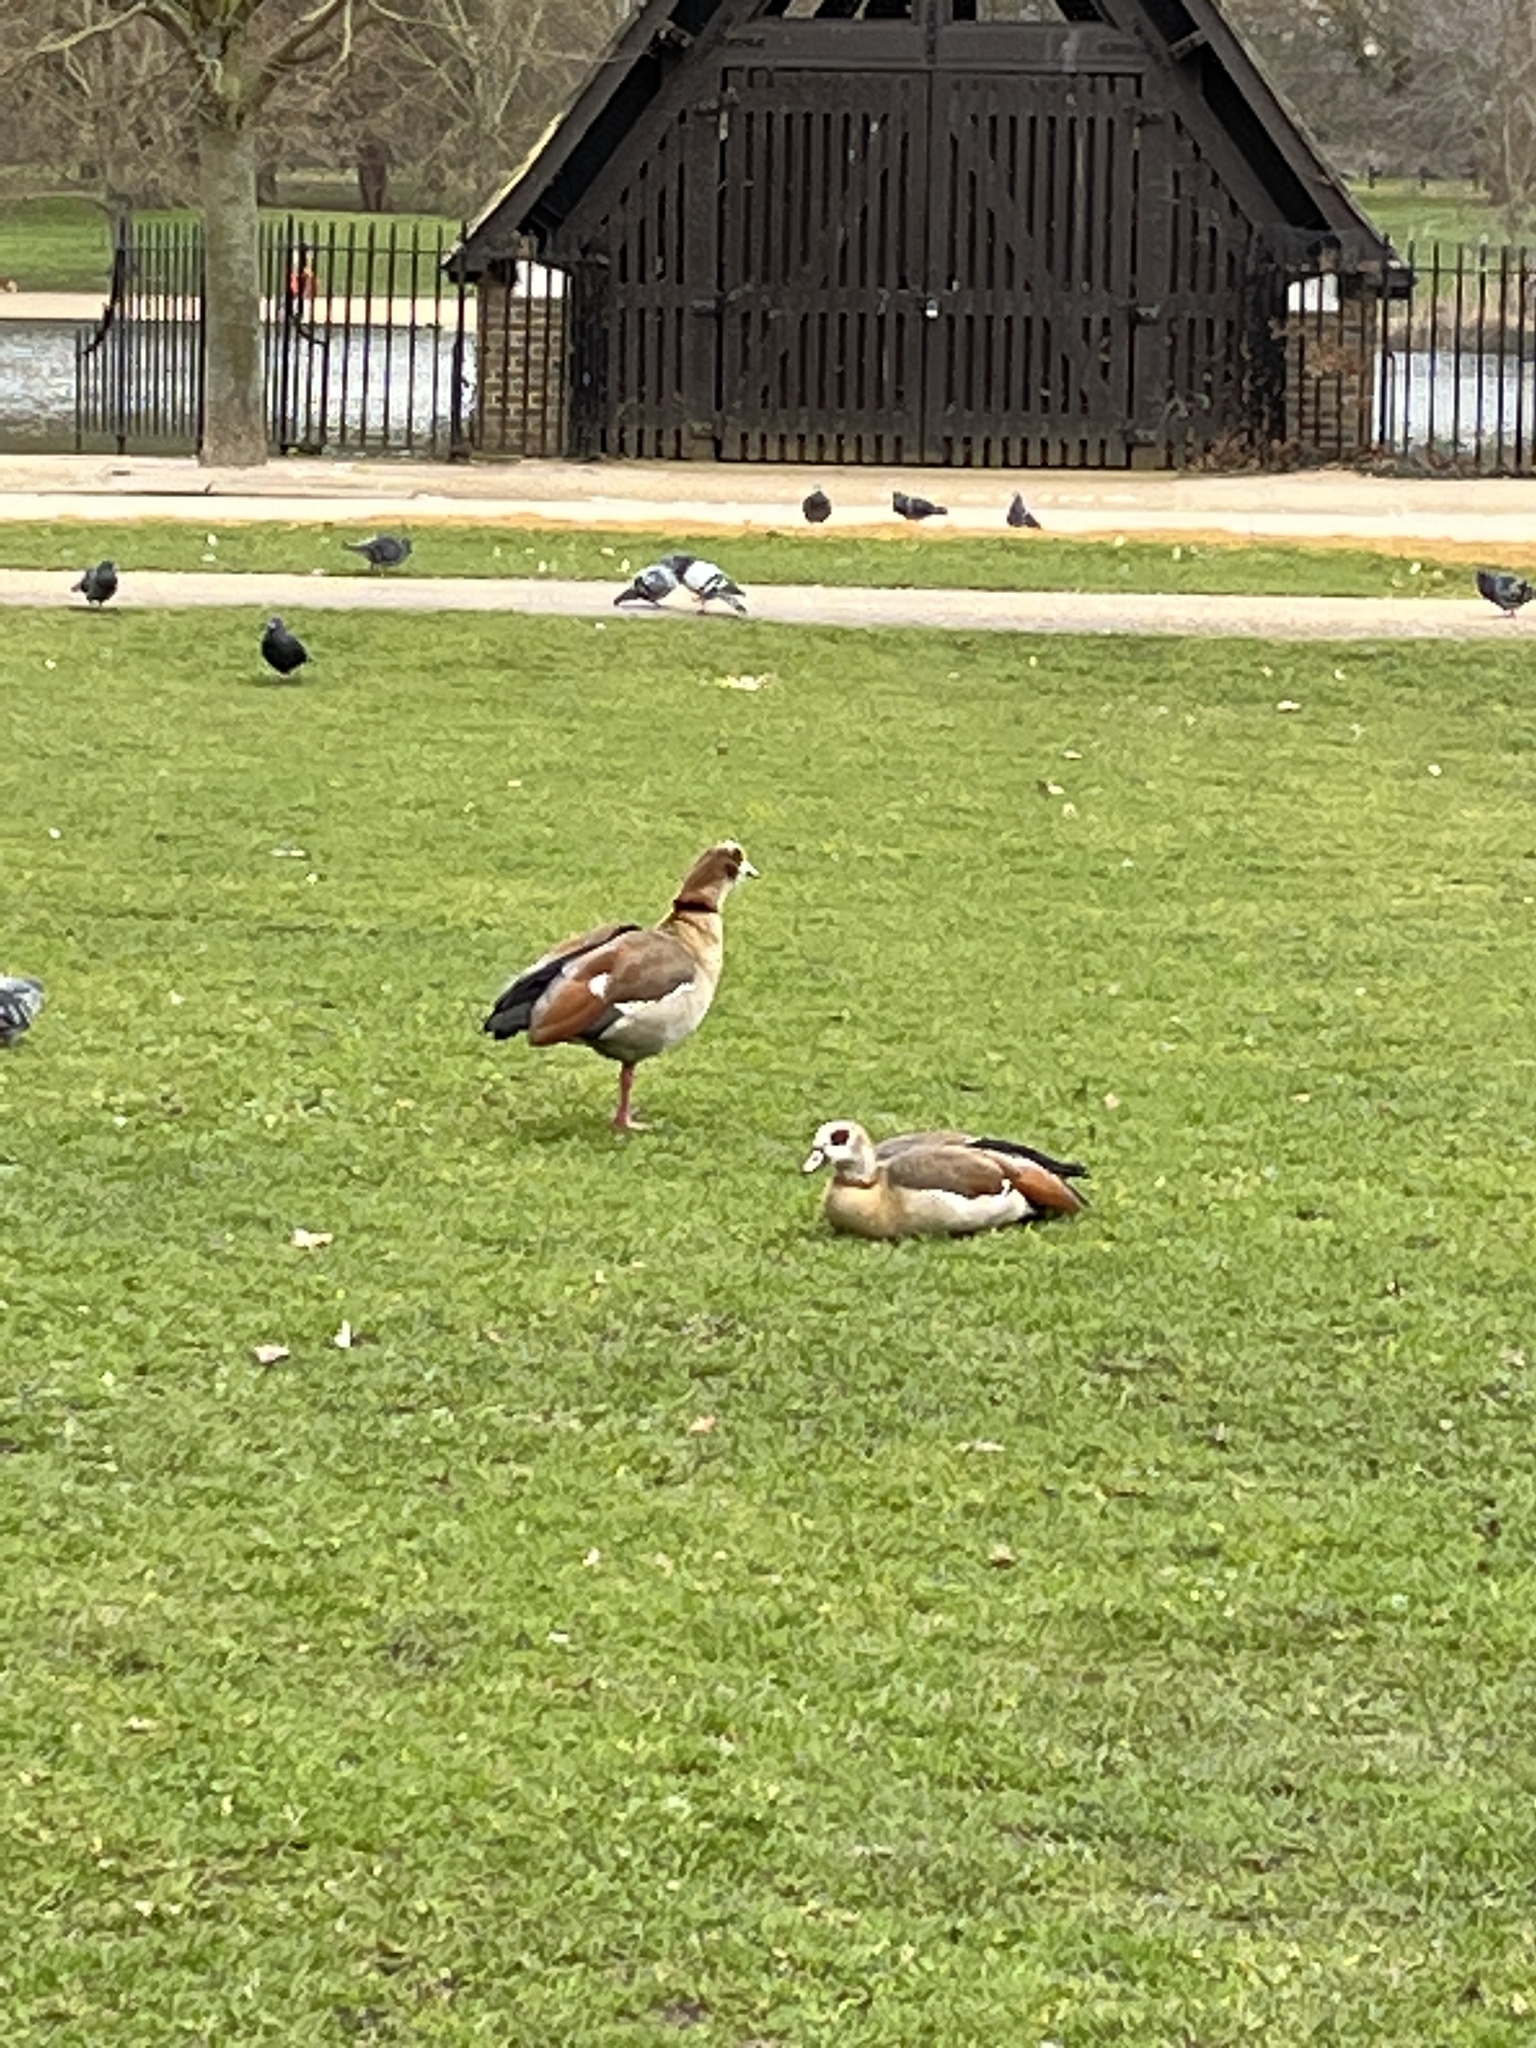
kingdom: Animalia
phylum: Chordata
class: Aves
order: Anseriformes
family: Anatidae
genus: Alopochen
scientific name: Alopochen aegyptiaca
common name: Egyptian goose
